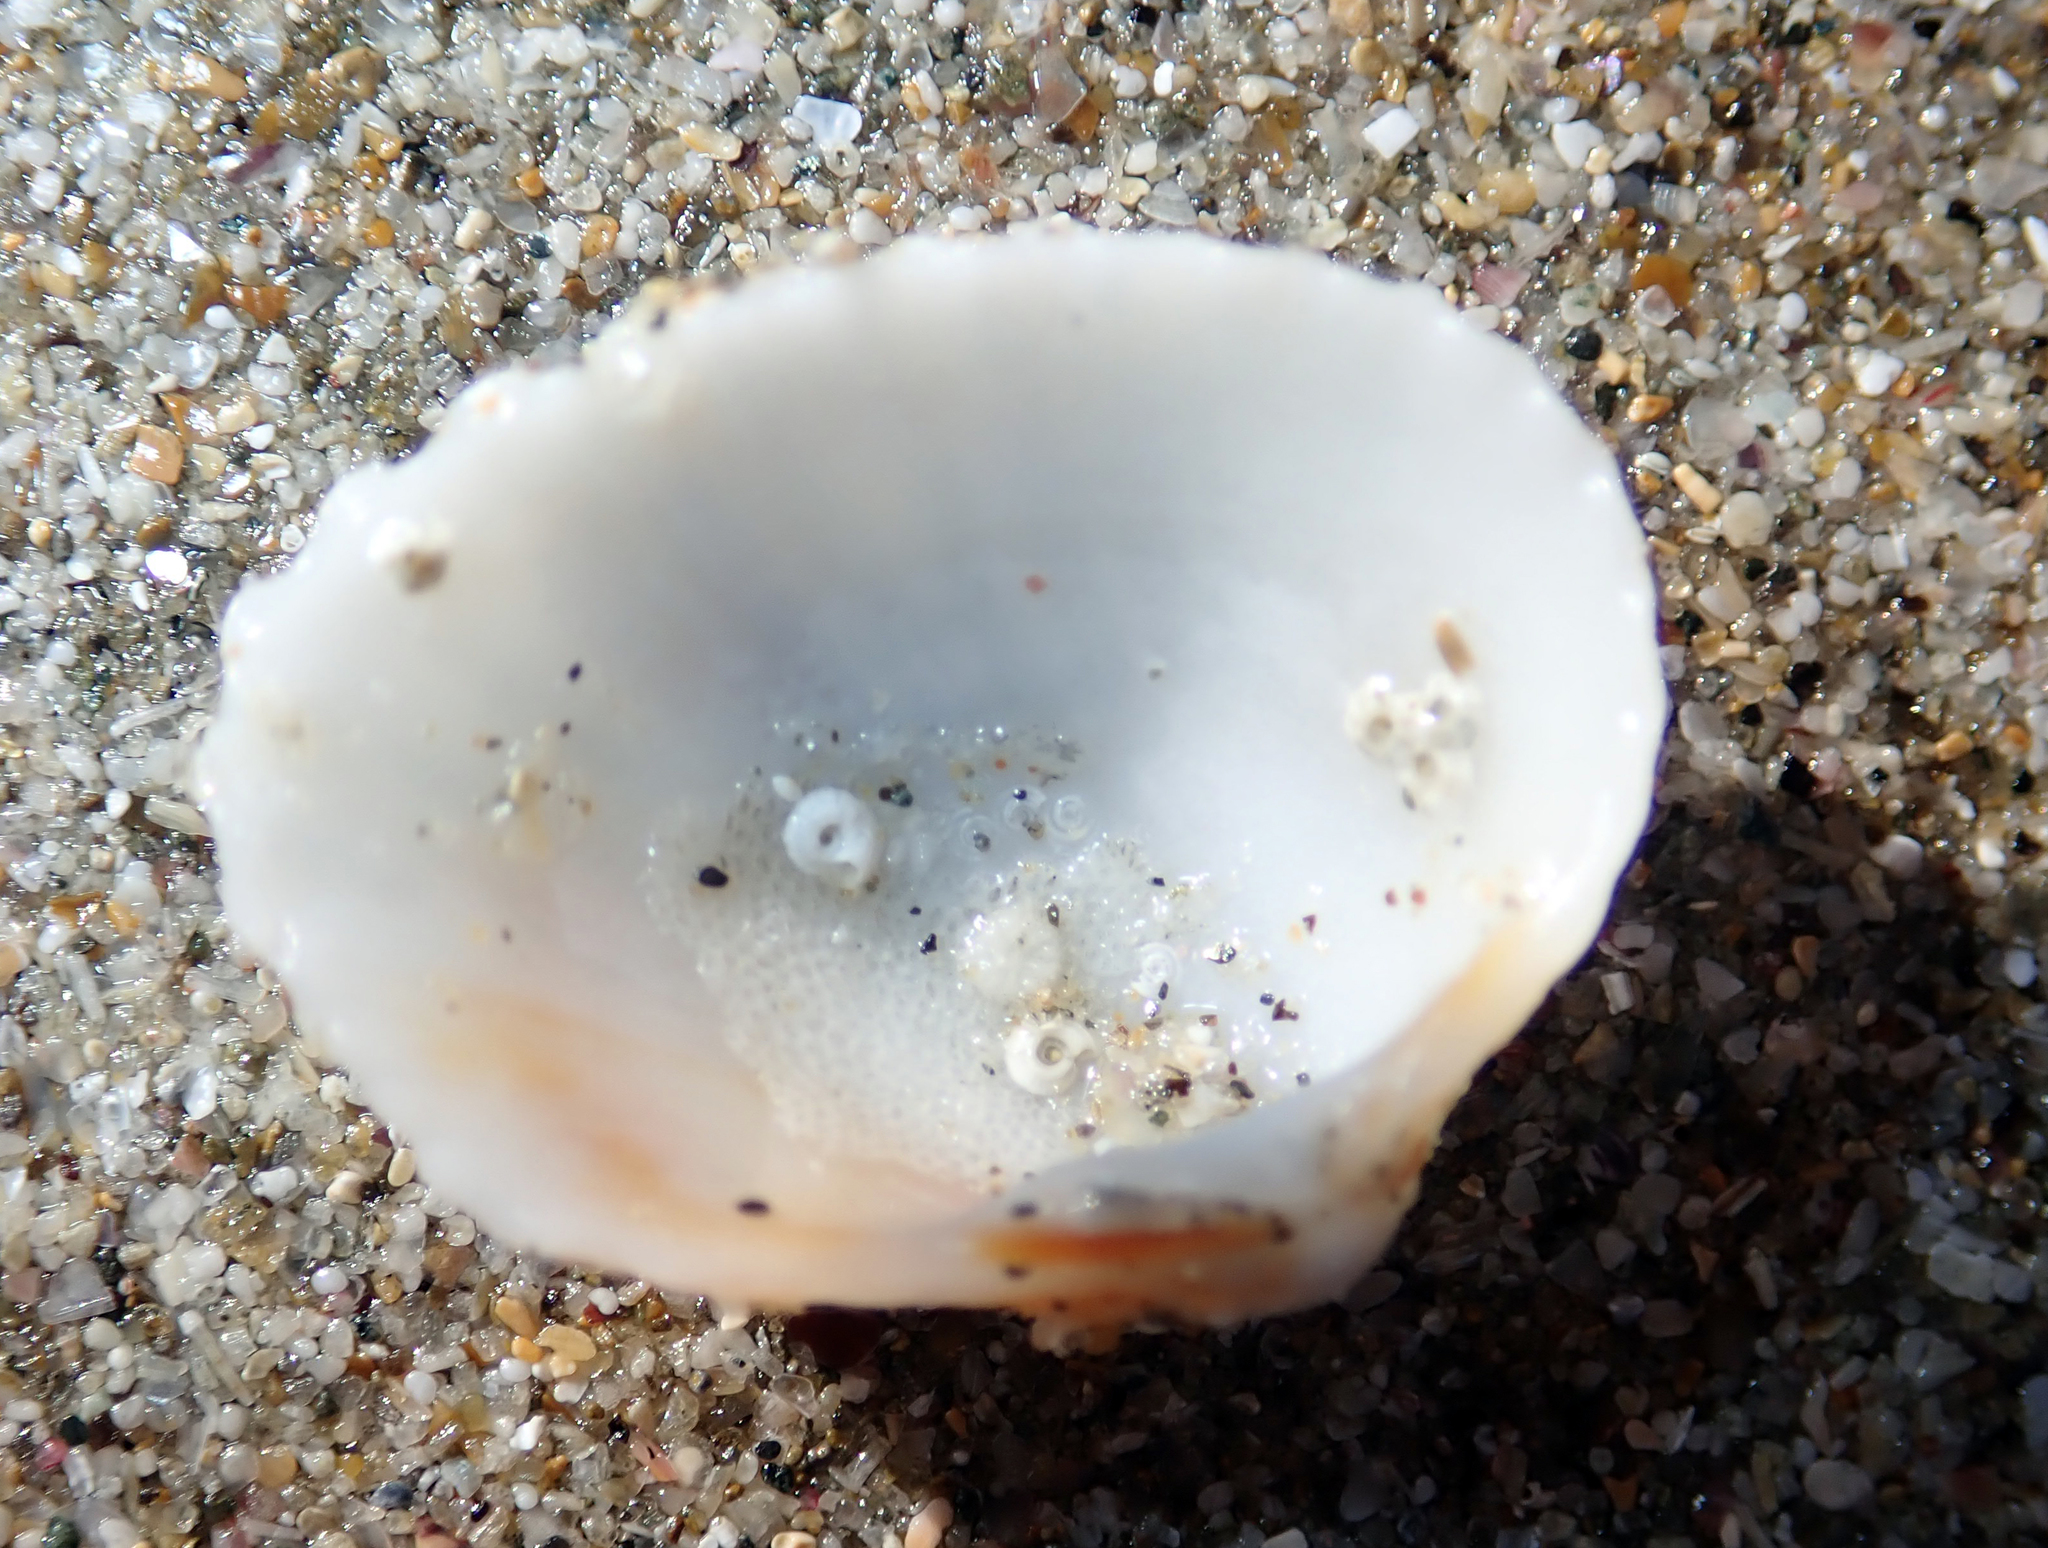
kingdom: Animalia
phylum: Mollusca
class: Bivalvia
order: Carditida
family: Carditidae
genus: Purpurocardia
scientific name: Purpurocardia reinga
